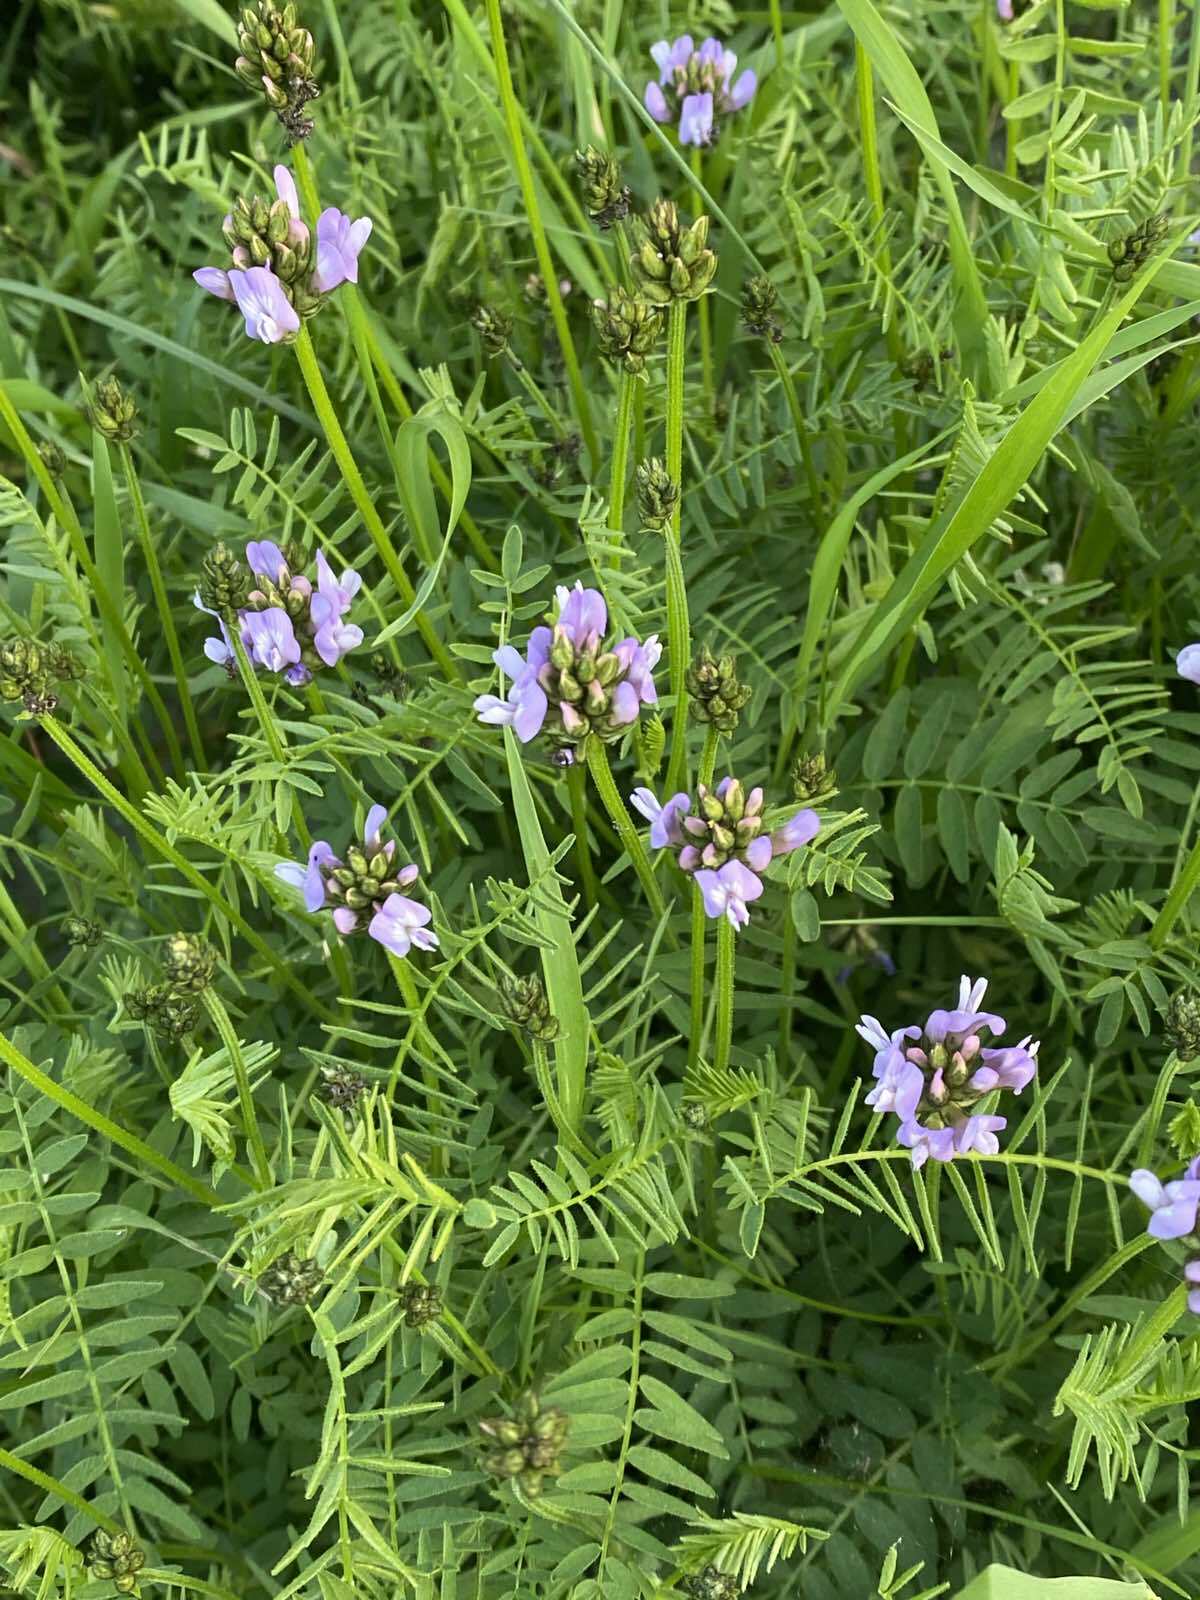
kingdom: Plantae
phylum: Tracheophyta
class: Magnoliopsida
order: Fabales
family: Fabaceae
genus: Astragalus
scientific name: Astragalus danicus
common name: Purple milk-vetch
